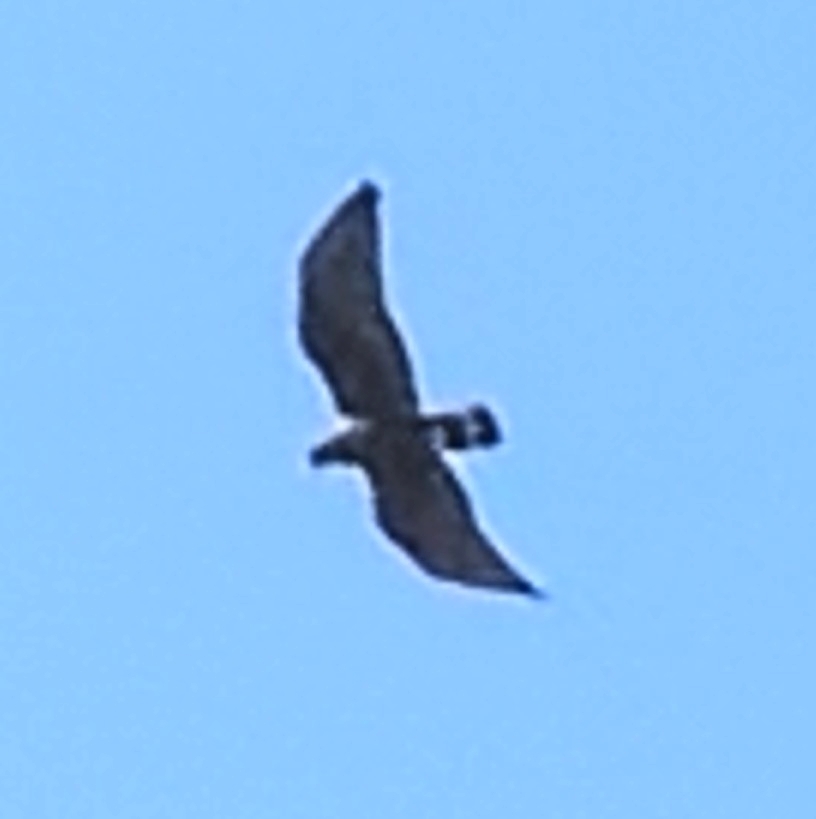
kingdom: Animalia
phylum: Chordata
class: Aves
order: Accipitriformes
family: Accipitridae
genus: Buteo
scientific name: Buteo albonotatus
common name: Zone-tailed hawk
